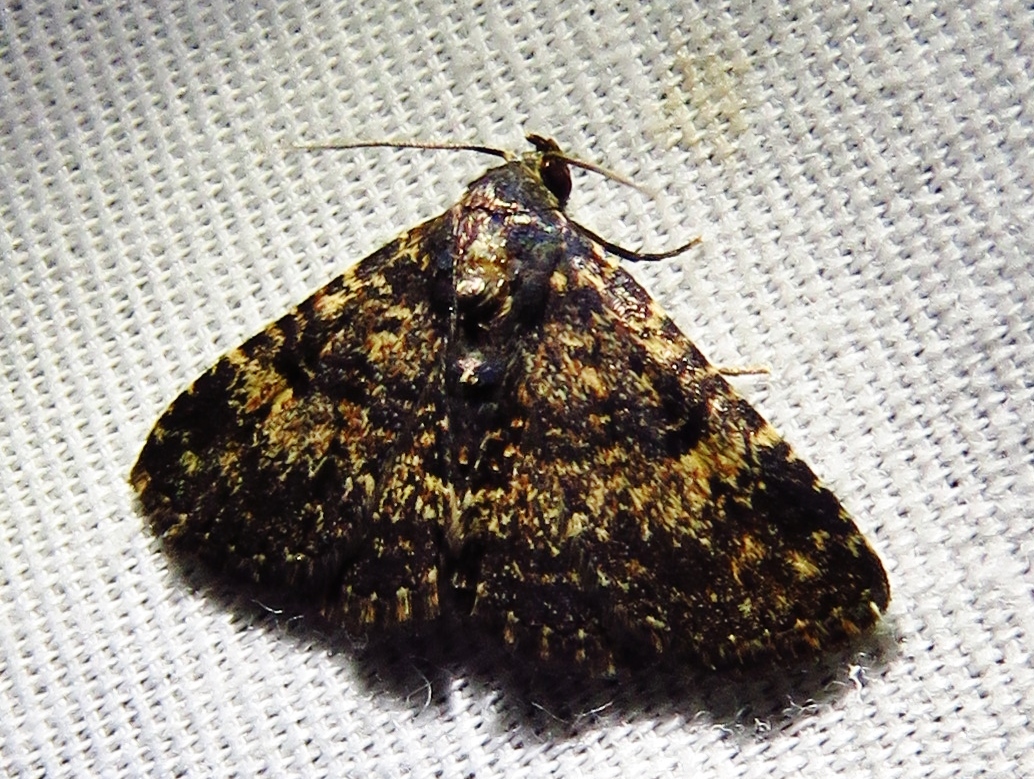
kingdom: Animalia
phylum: Arthropoda
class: Insecta
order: Lepidoptera
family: Erebidae
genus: Metalectra
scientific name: Metalectra diabolica
